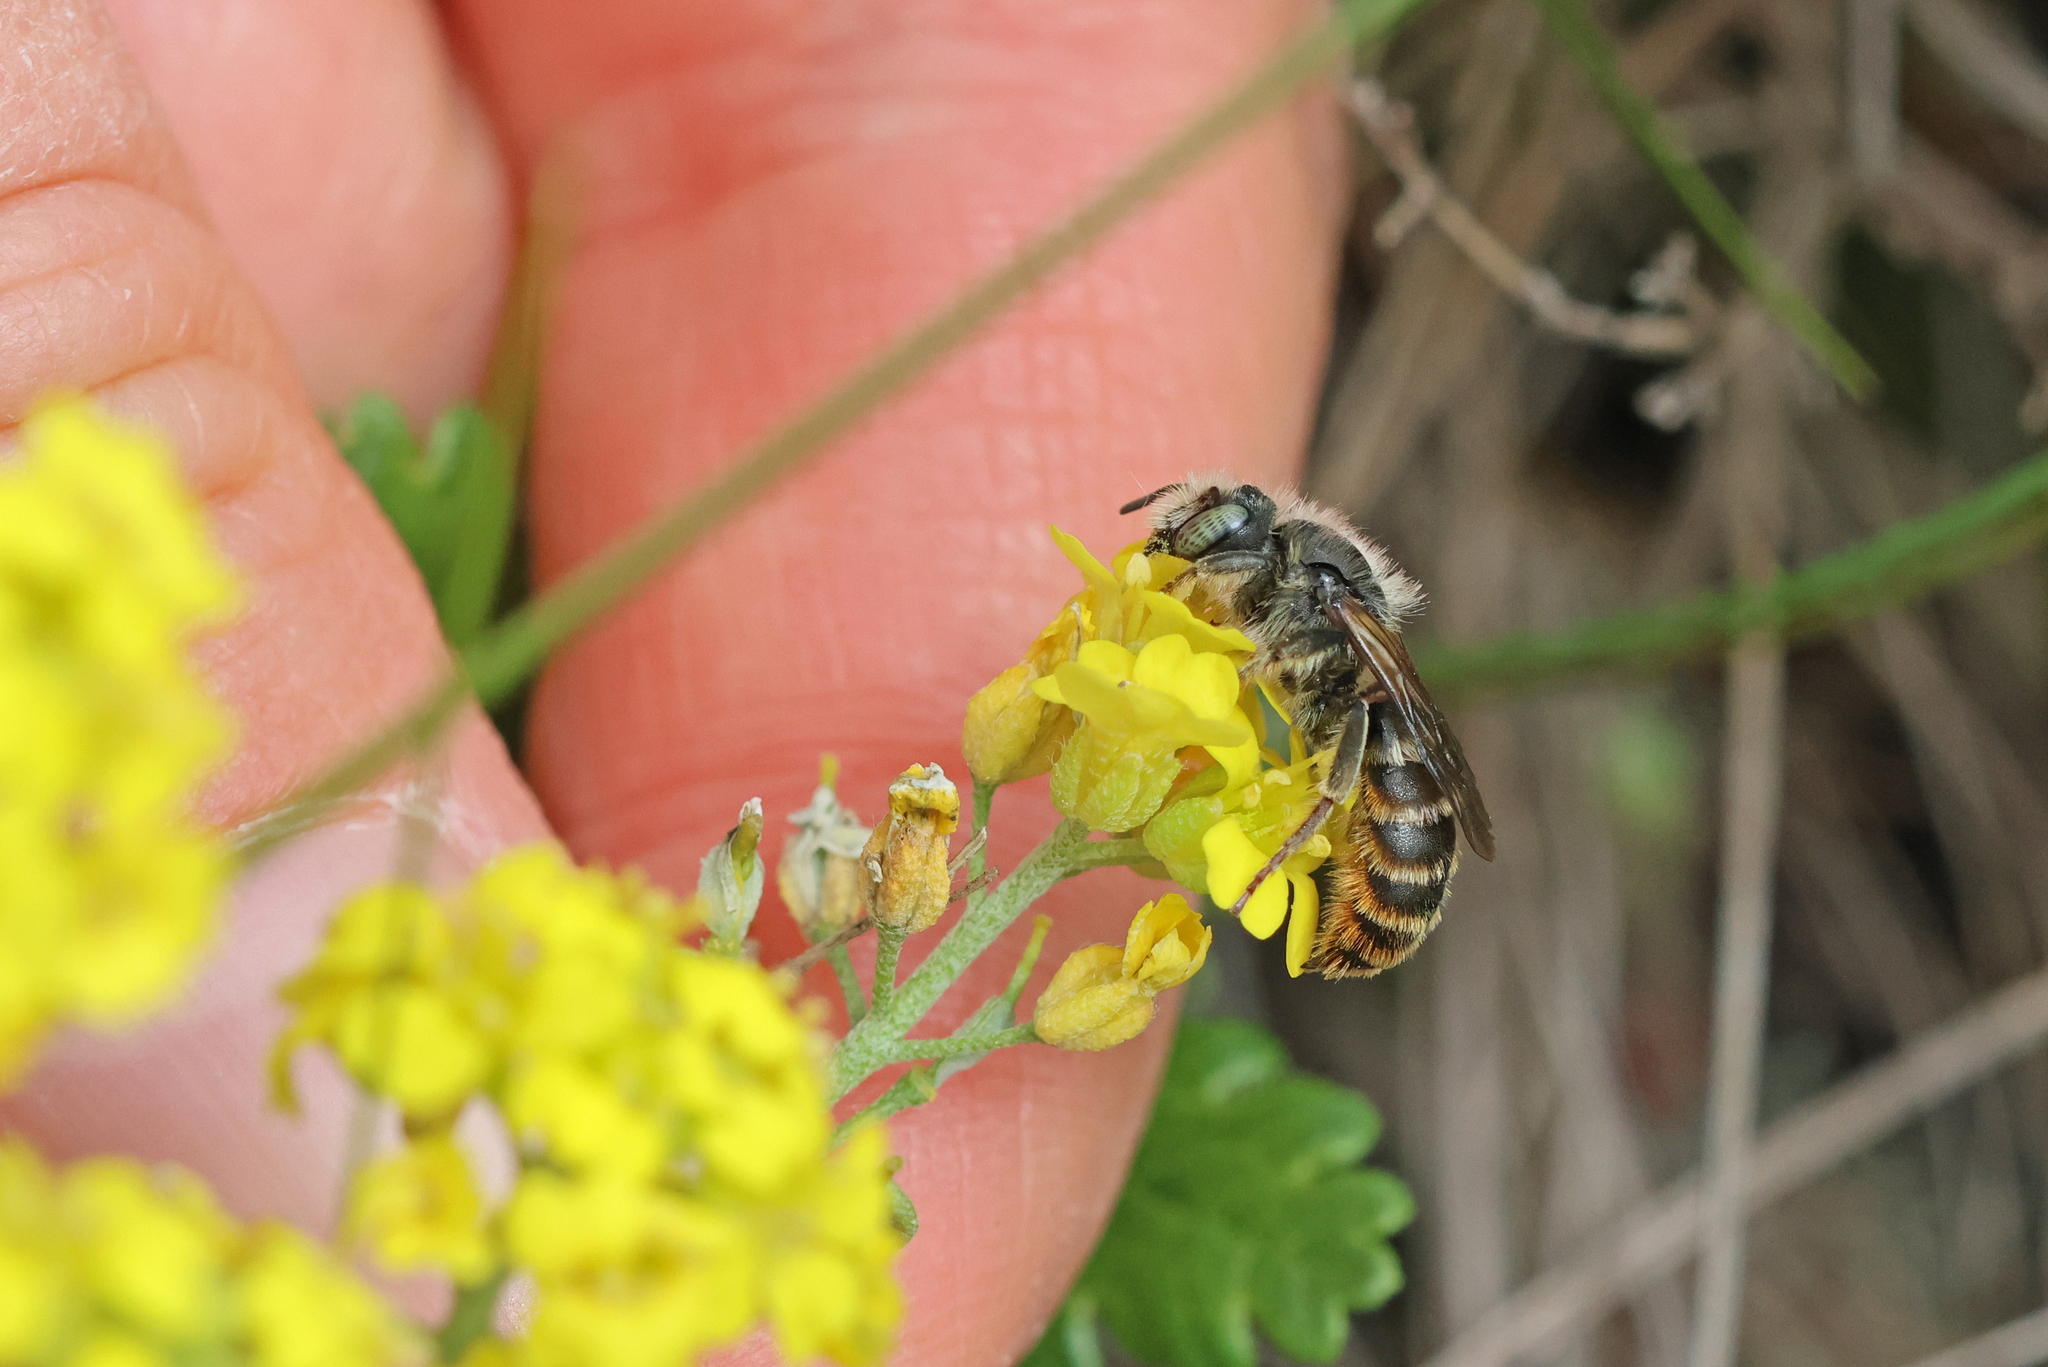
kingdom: Animalia
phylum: Arthropoda
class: Insecta
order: Hymenoptera
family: Megachilidae
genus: Osmia
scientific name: Osmia rufohirta
